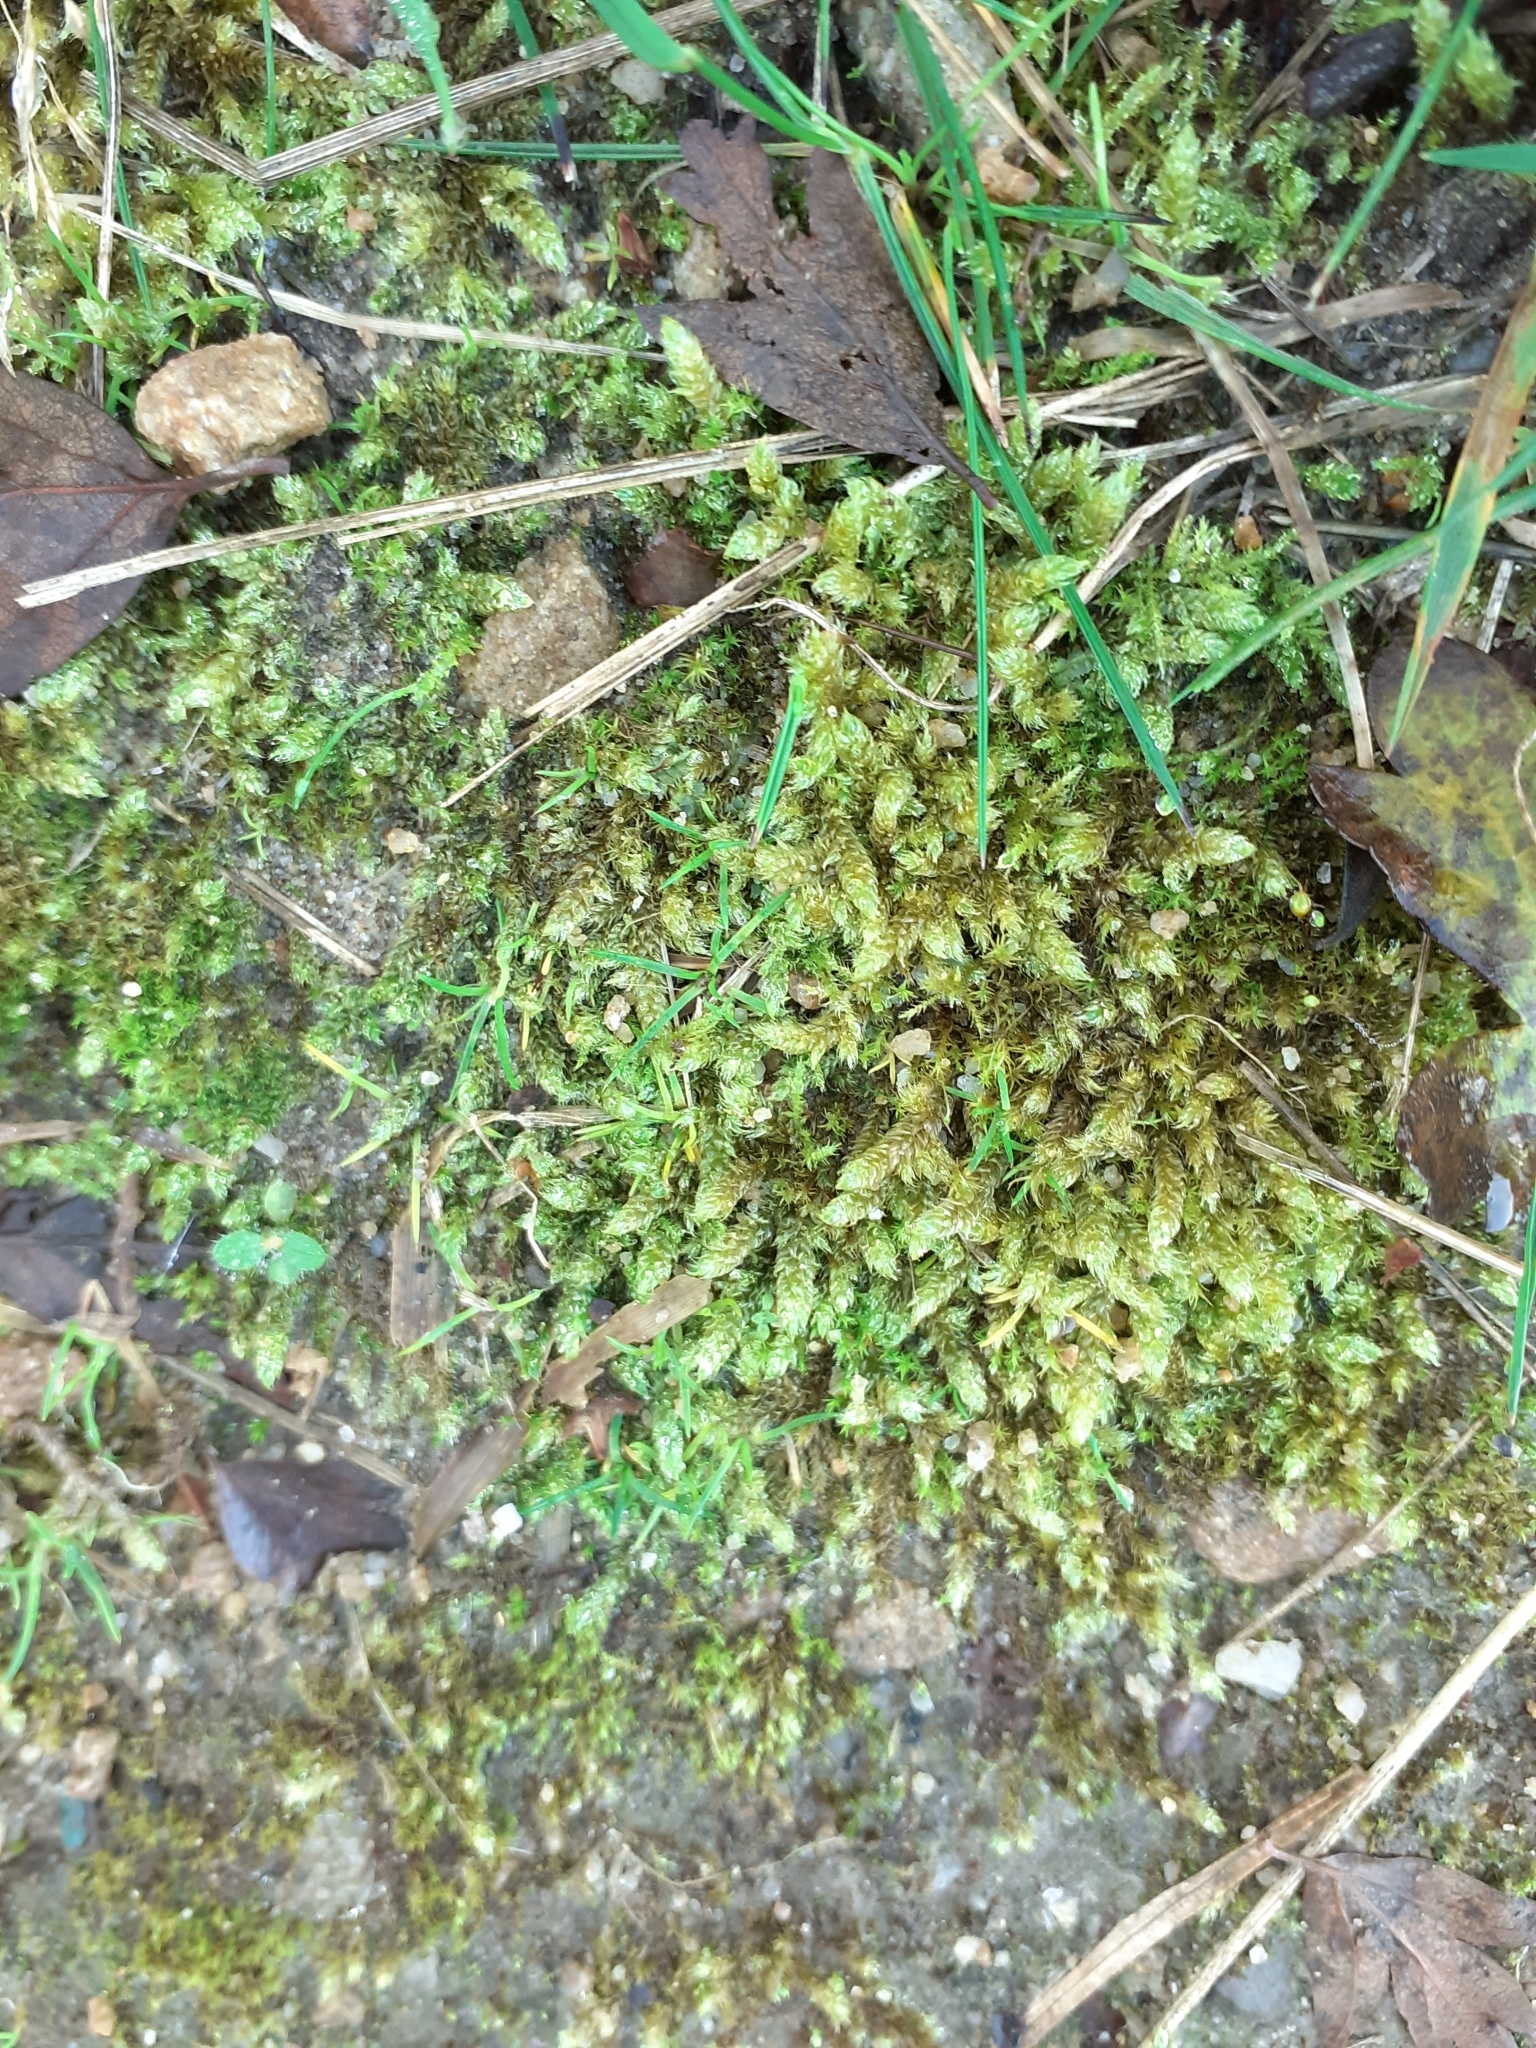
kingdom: Plantae
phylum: Bryophyta
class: Bryopsida
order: Hypnales
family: Hypnaceae
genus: Hypnum
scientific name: Hypnum cupressiforme
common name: Cypress-leaved plait-moss
